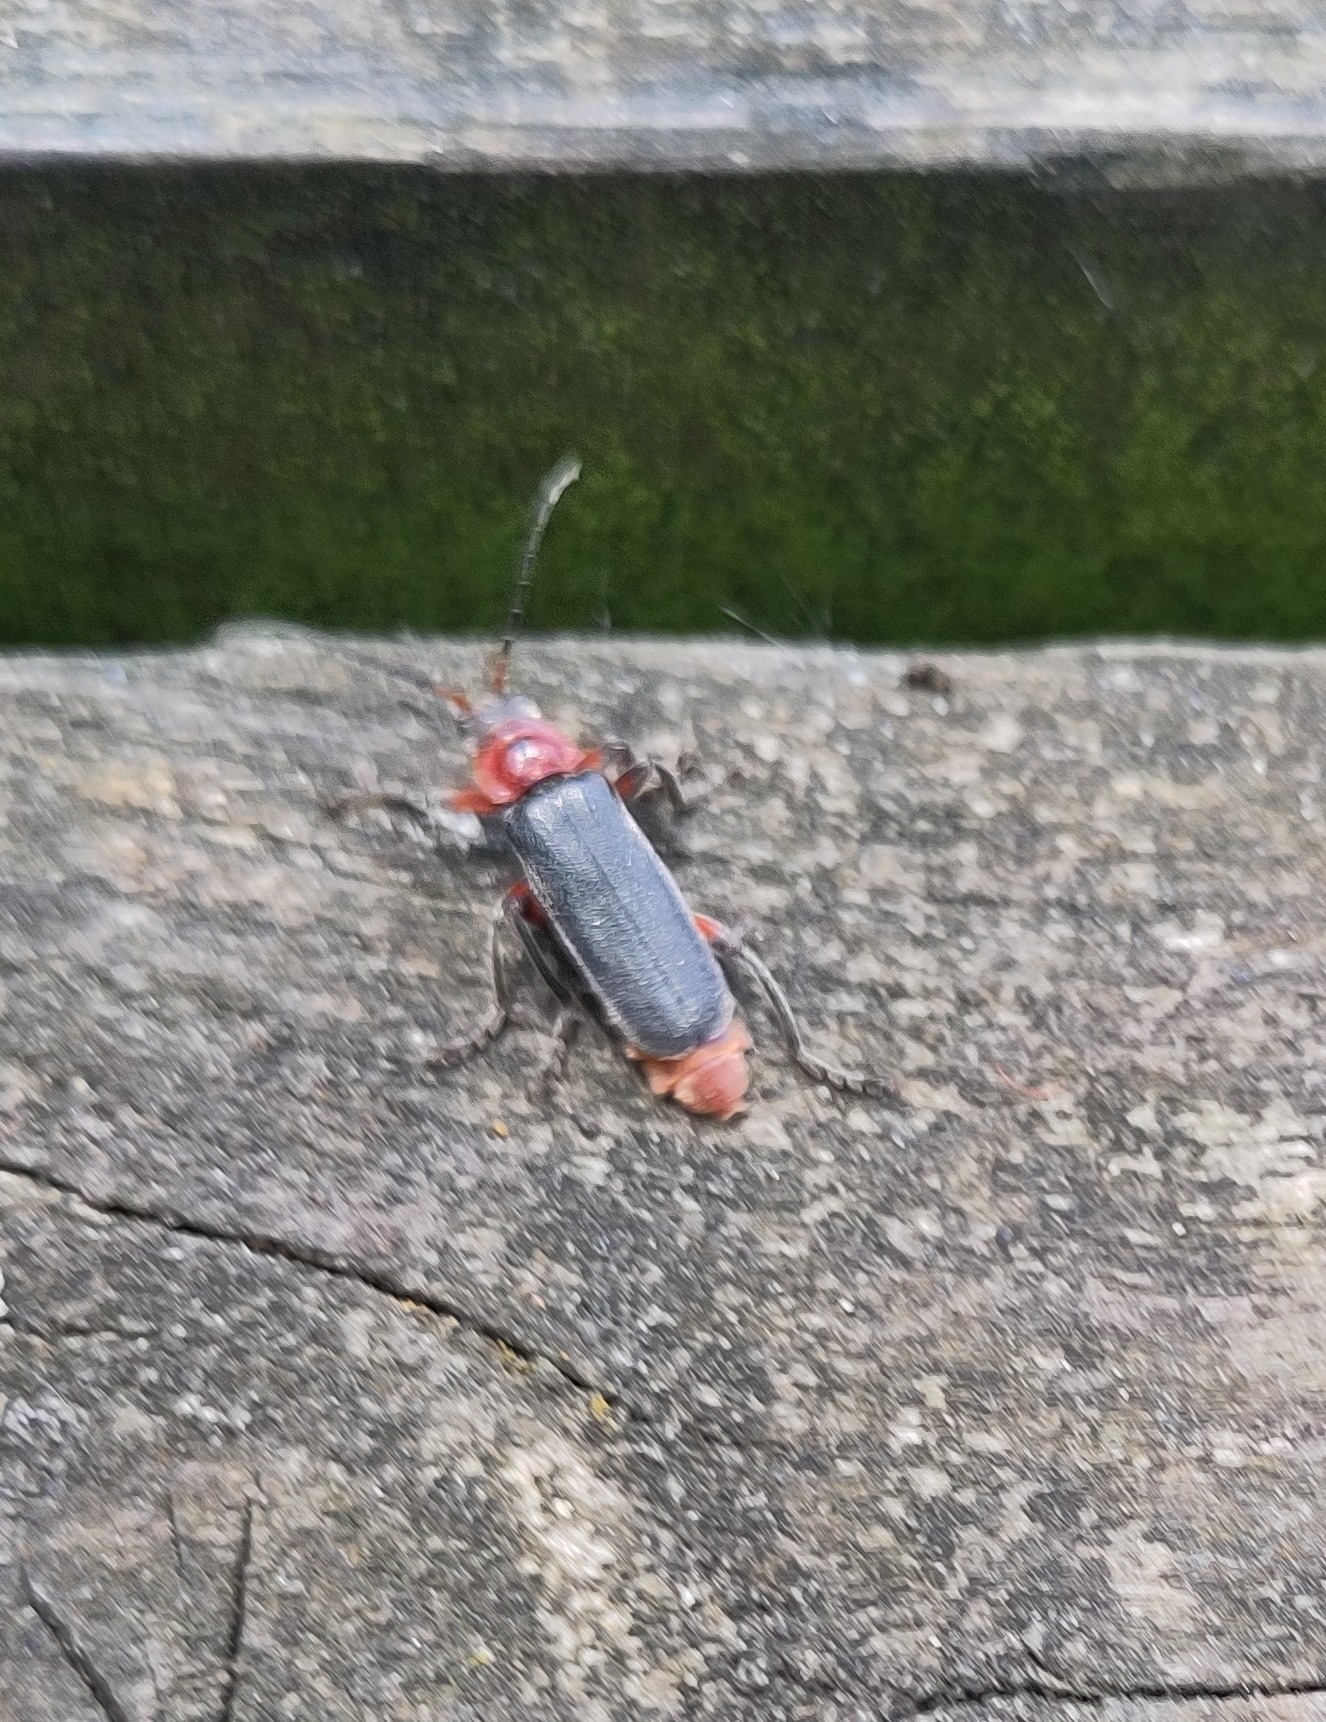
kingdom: Animalia
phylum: Arthropoda
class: Insecta
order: Coleoptera
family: Cantharidae
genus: Cantharis
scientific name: Cantharis rustica
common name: Soldier beetle
